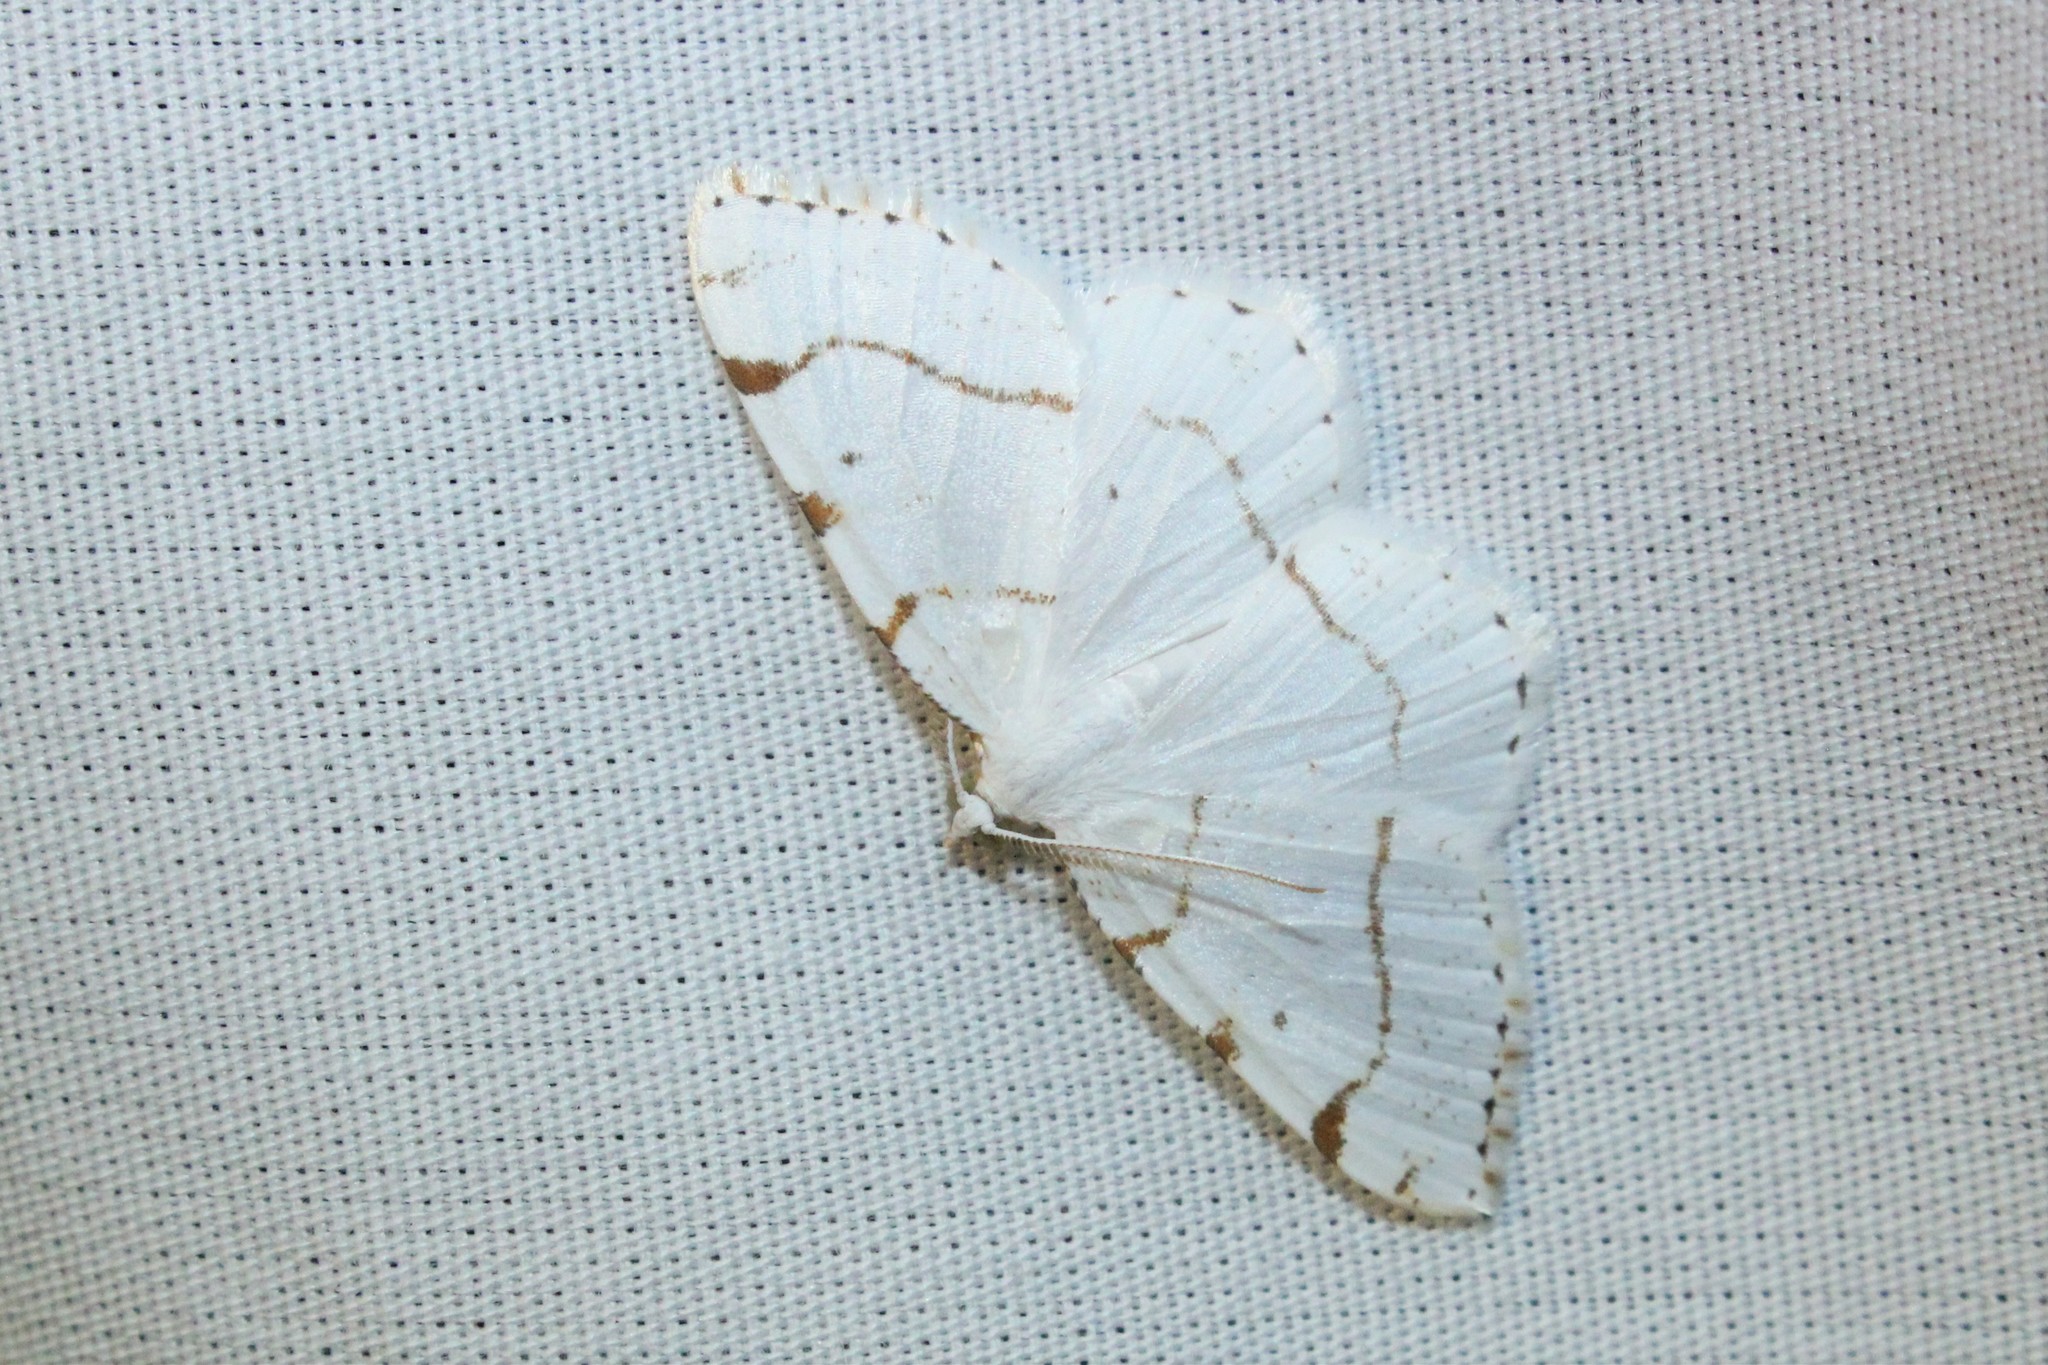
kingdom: Animalia
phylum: Arthropoda
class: Insecta
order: Lepidoptera
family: Geometridae
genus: Macaria
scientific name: Macaria pustularia
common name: Lesser maple spanworm moth
